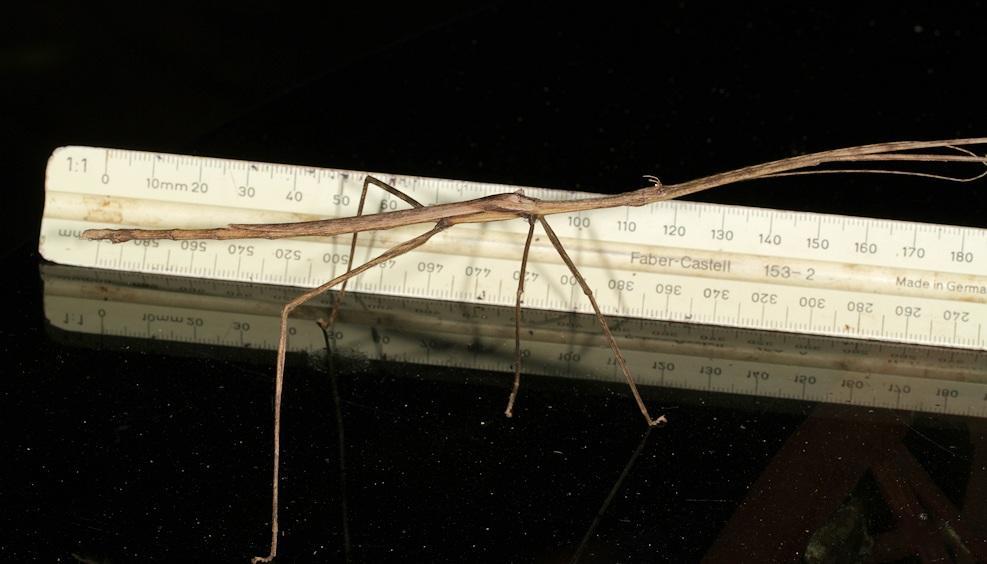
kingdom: Animalia
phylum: Arthropoda
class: Insecta
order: Phasmida
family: Diapheromeridae
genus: Bactrododema
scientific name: Bactrododema tiaratum
